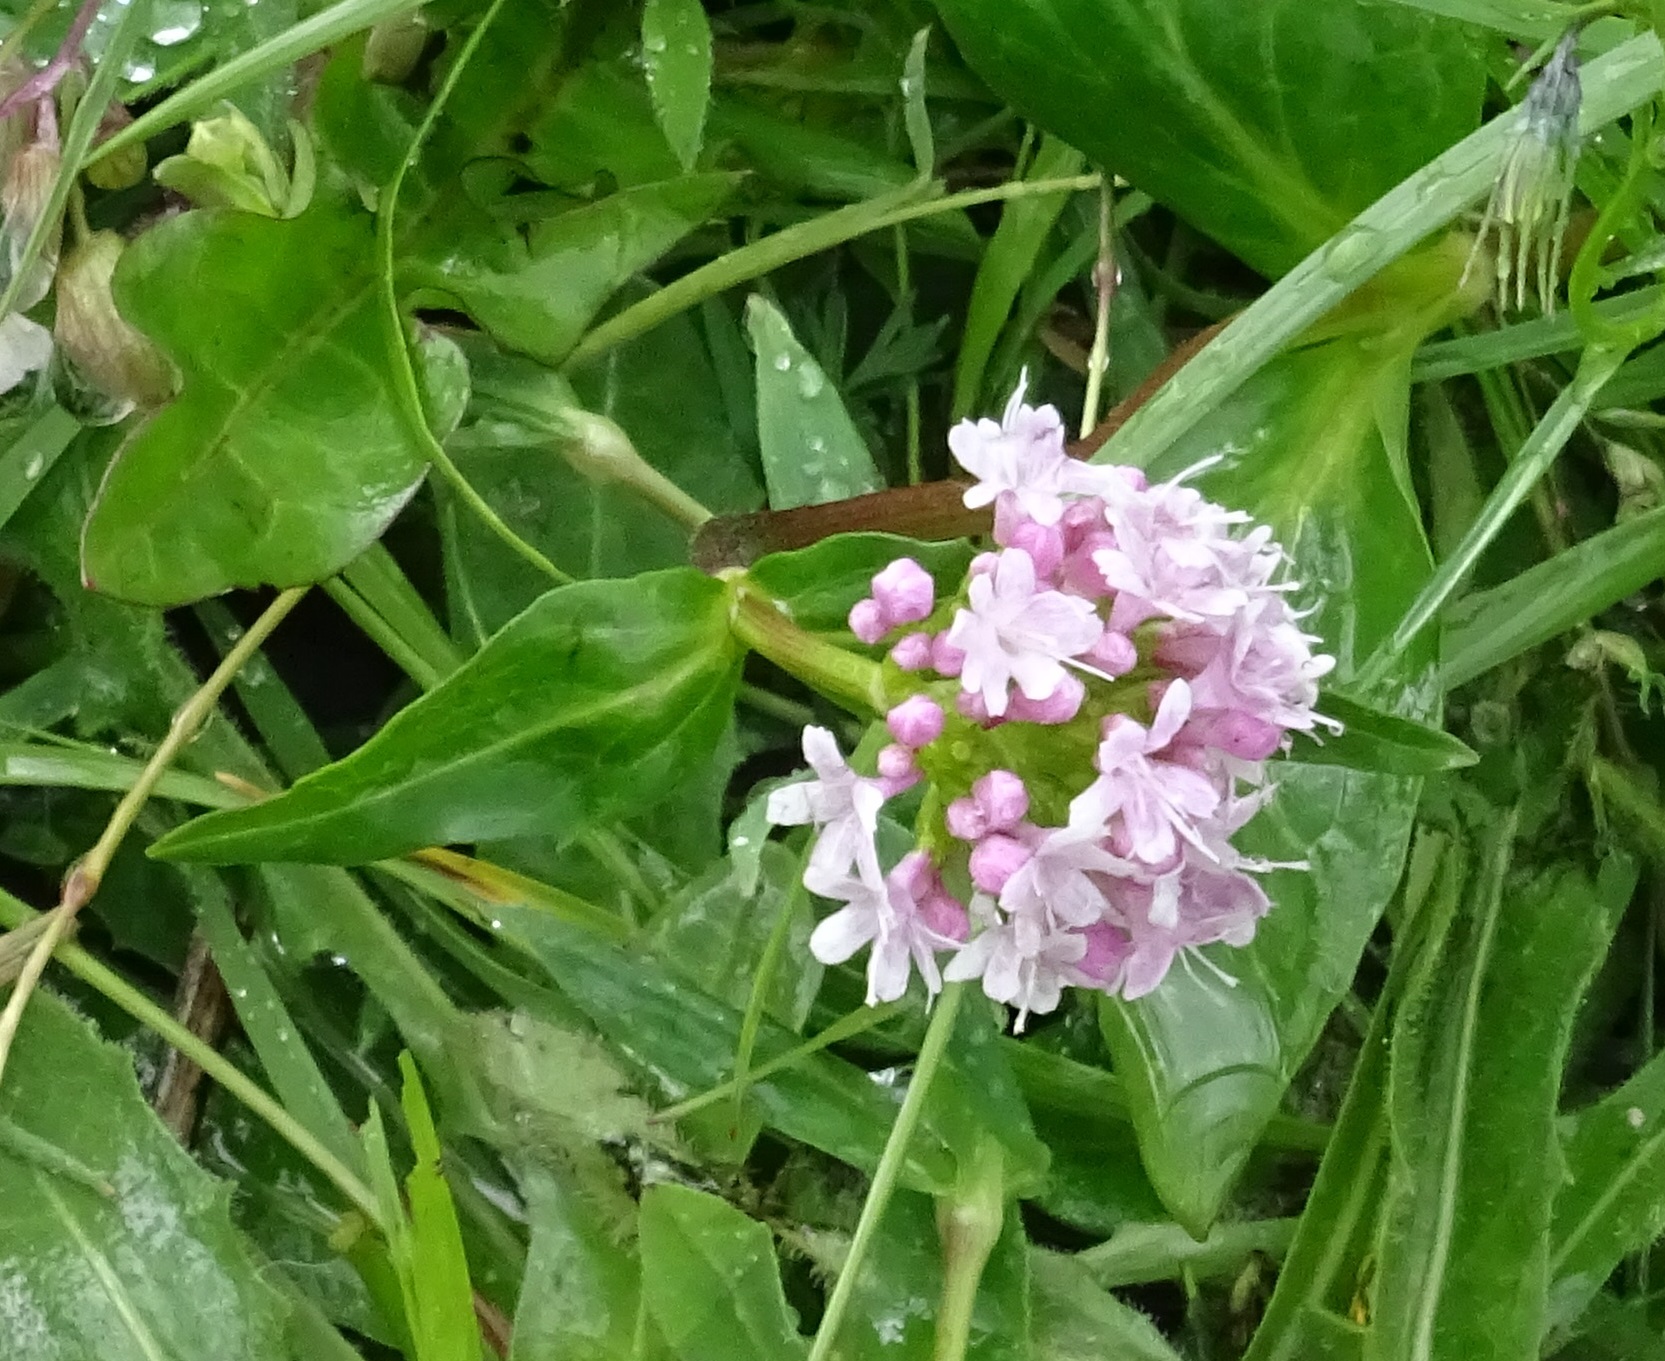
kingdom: Plantae
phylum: Tracheophyta
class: Magnoliopsida
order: Dipsacales
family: Caprifoliaceae
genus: Valeriana
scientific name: Valeriana montana
